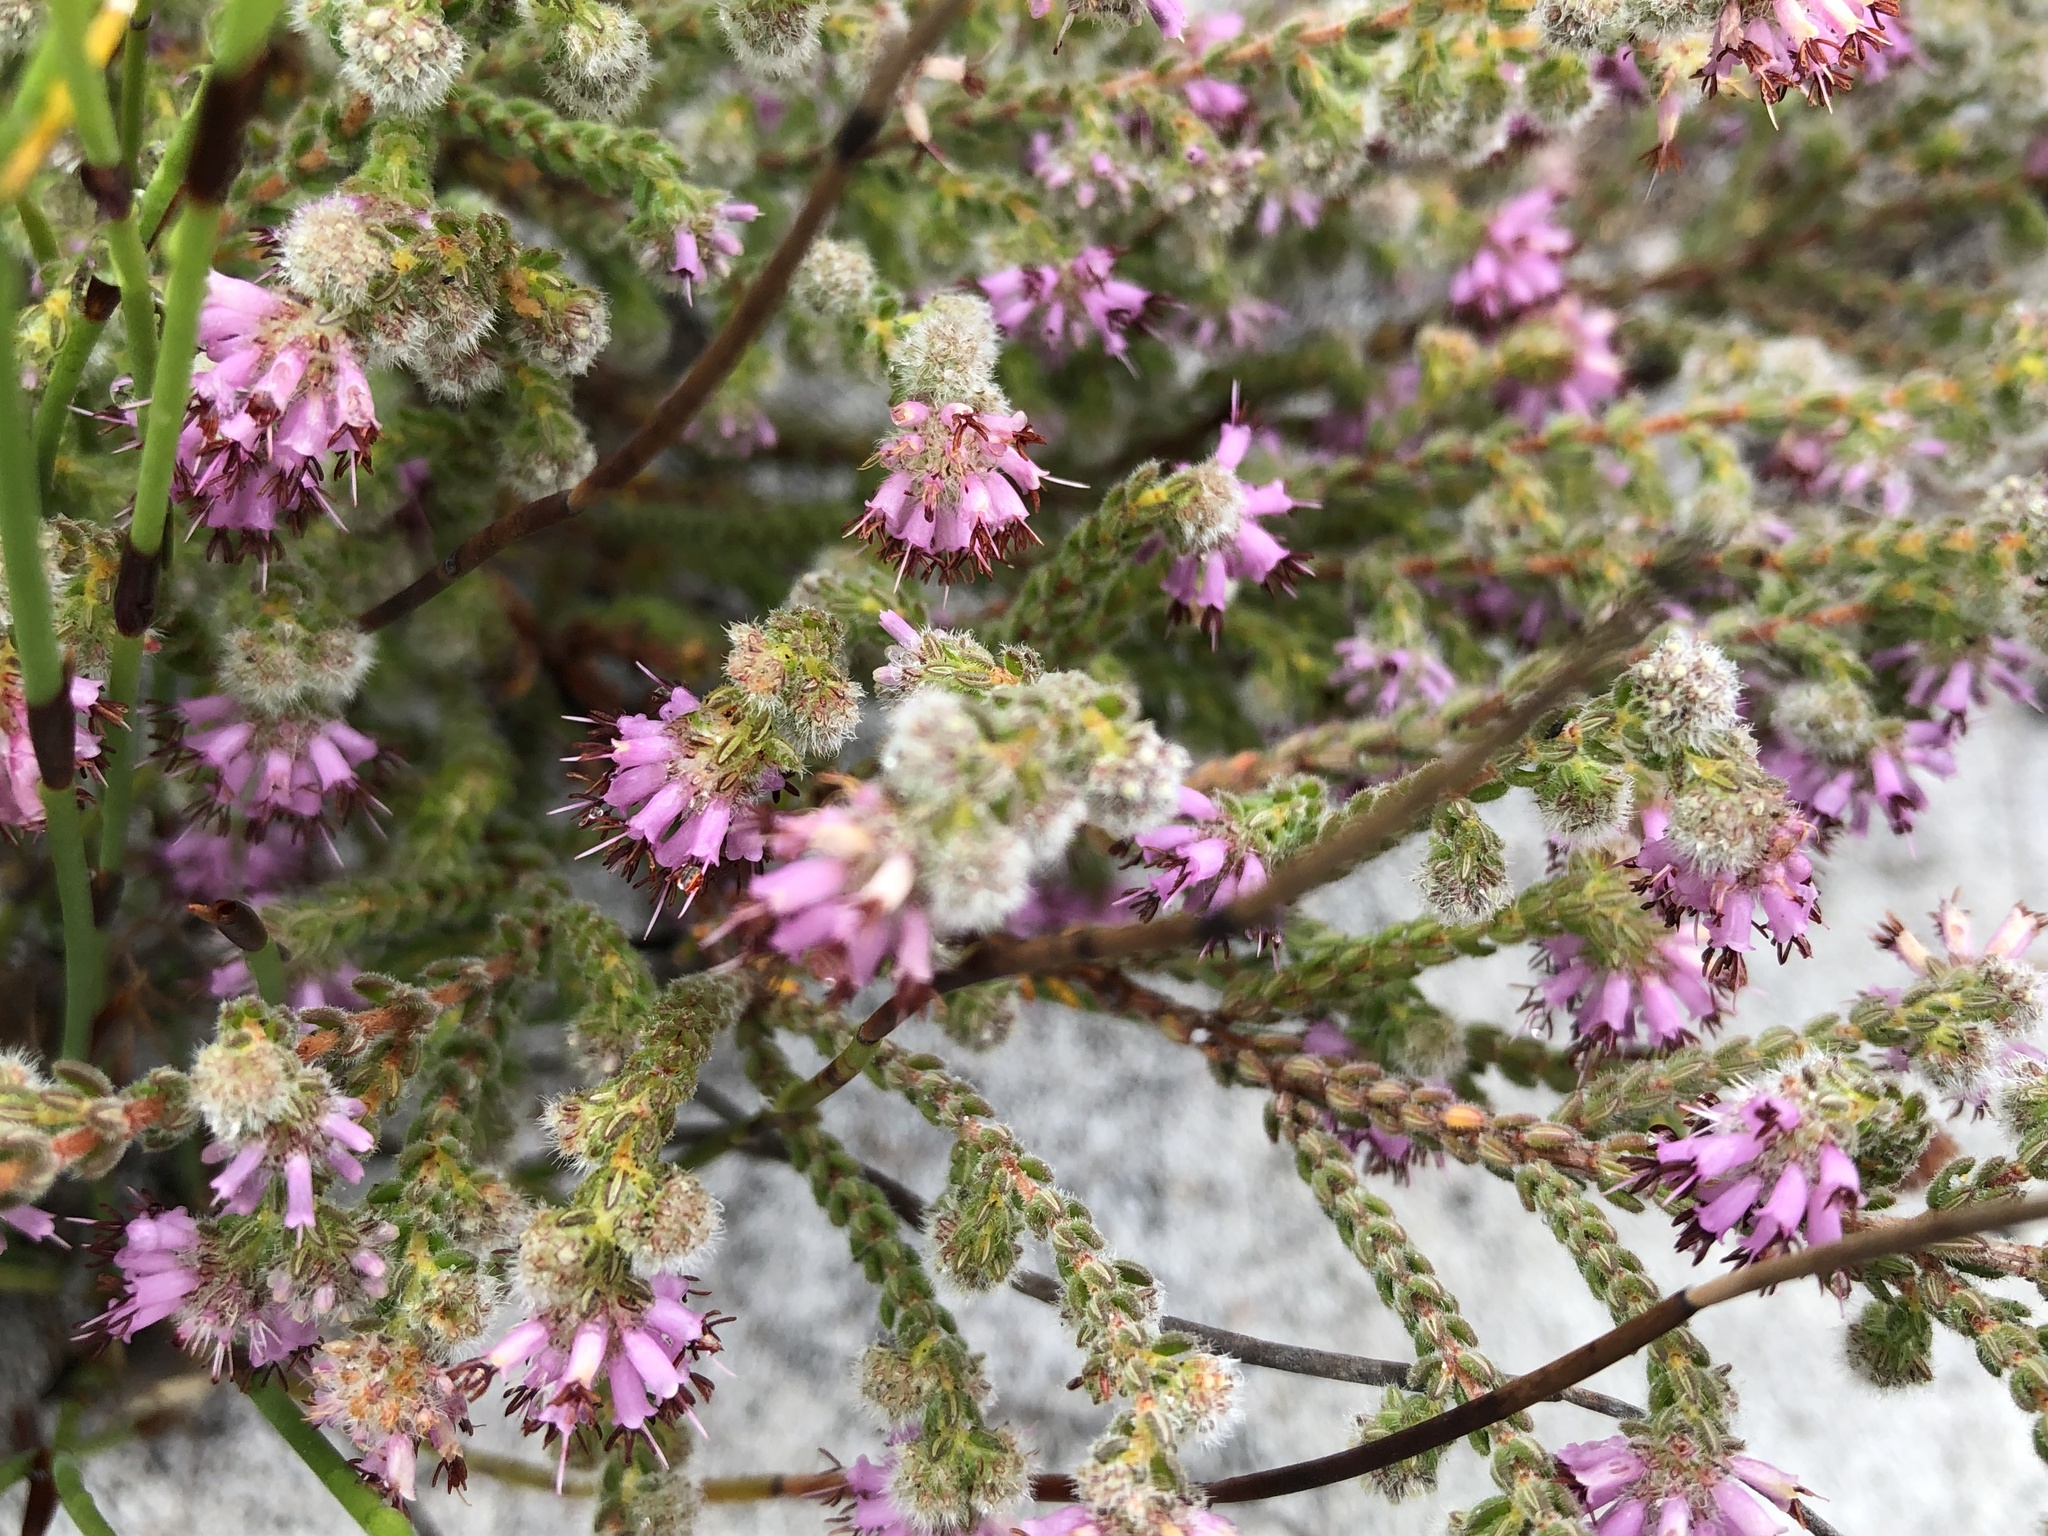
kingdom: Plantae
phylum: Tracheophyta
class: Magnoliopsida
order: Ericales
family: Ericaceae
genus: Erica
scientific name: Erica similis
